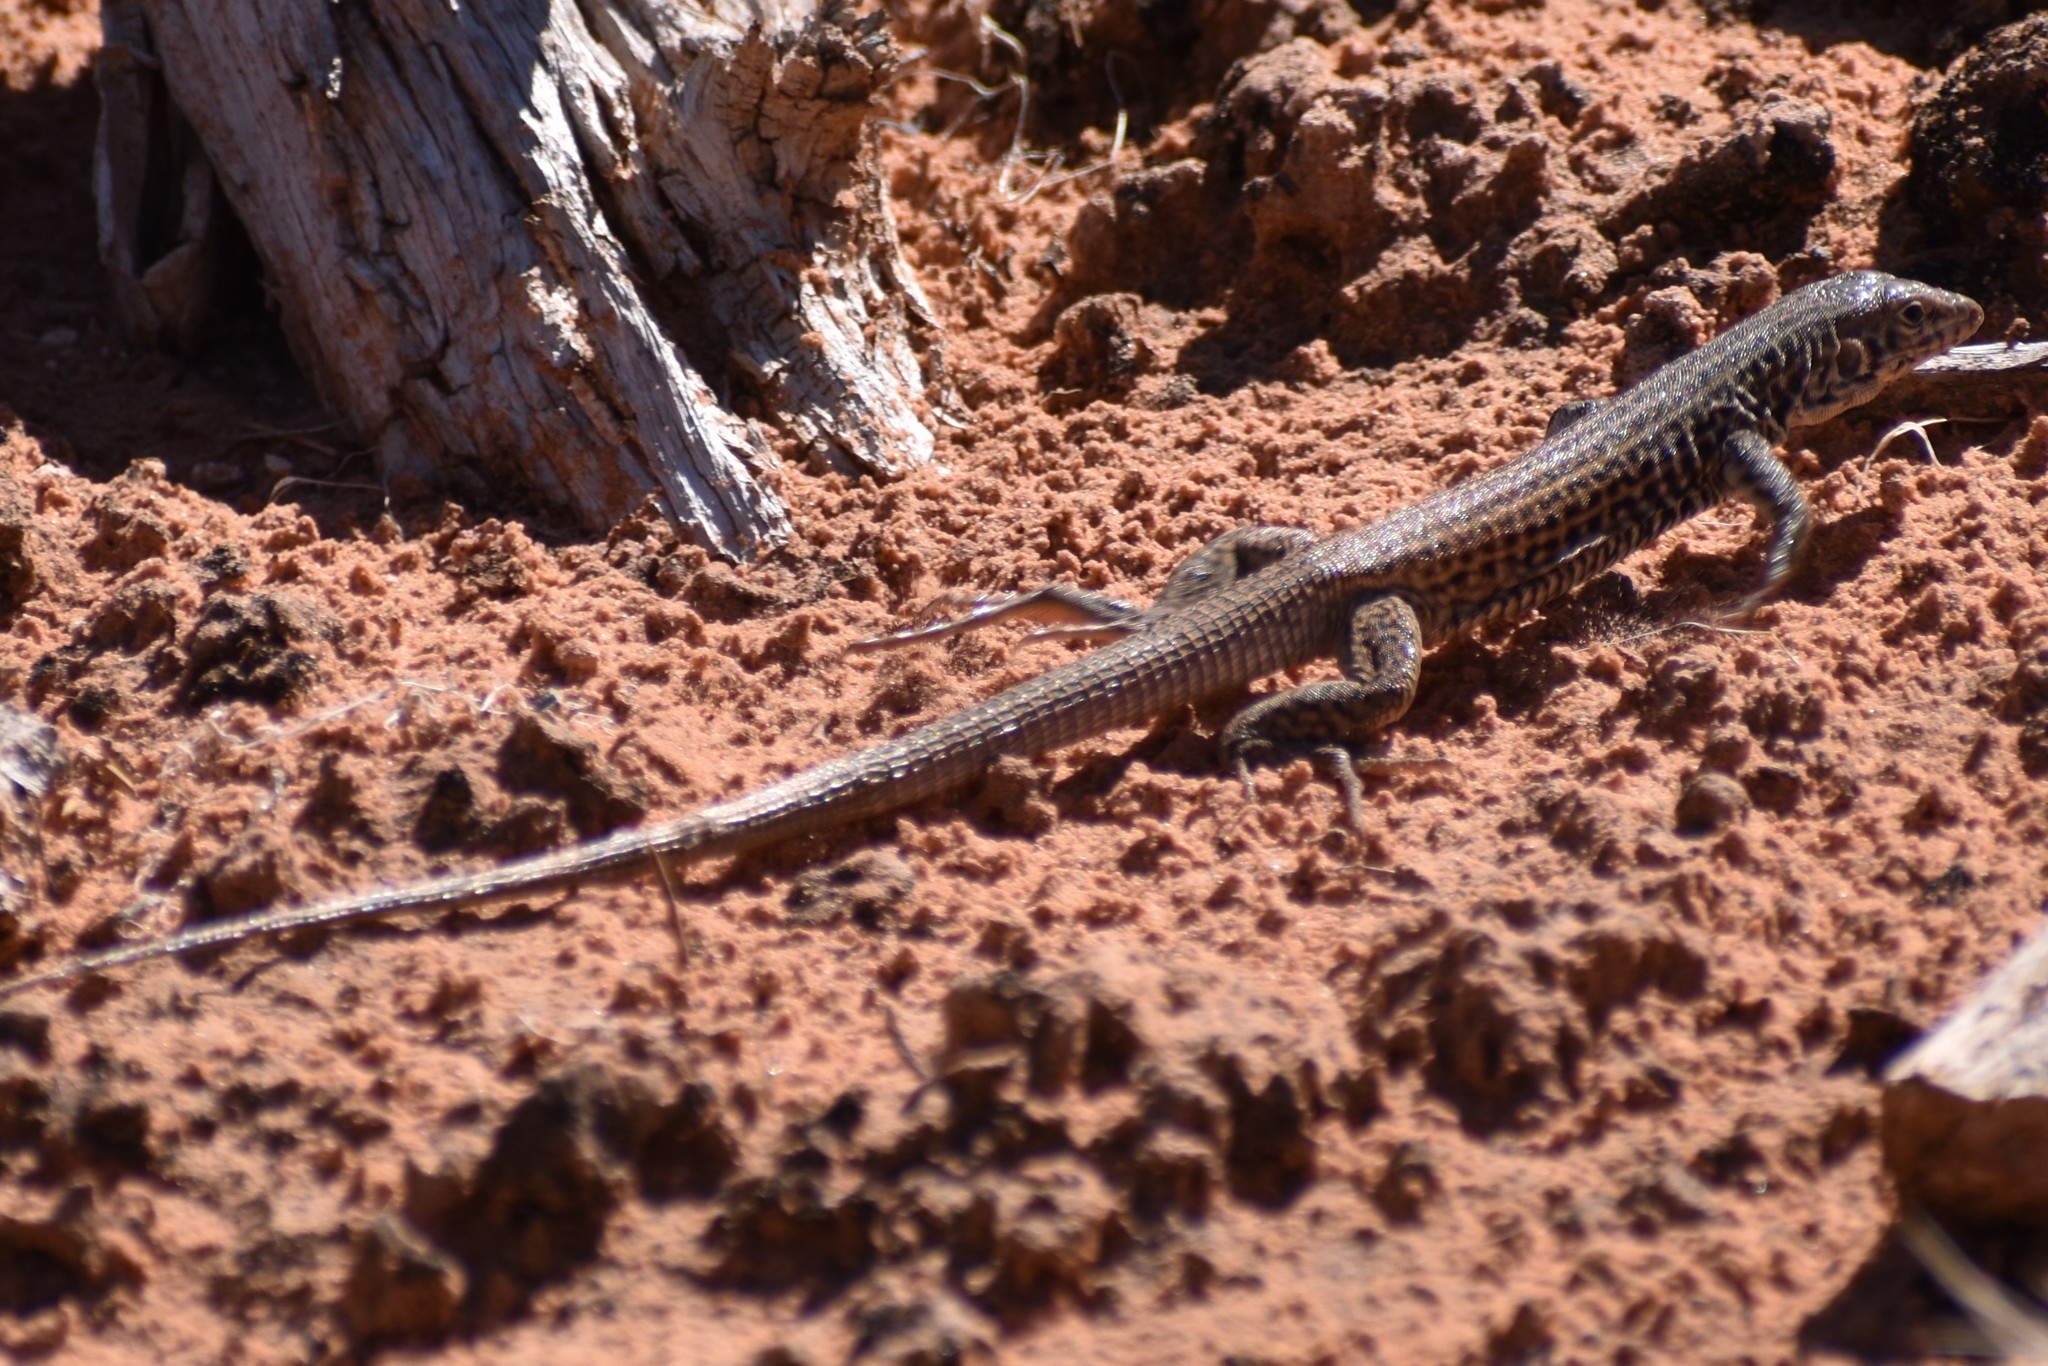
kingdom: Animalia
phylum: Chordata
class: Squamata
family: Teiidae
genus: Aspidoscelis
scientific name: Aspidoscelis tigris
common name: Tiger whiptail
